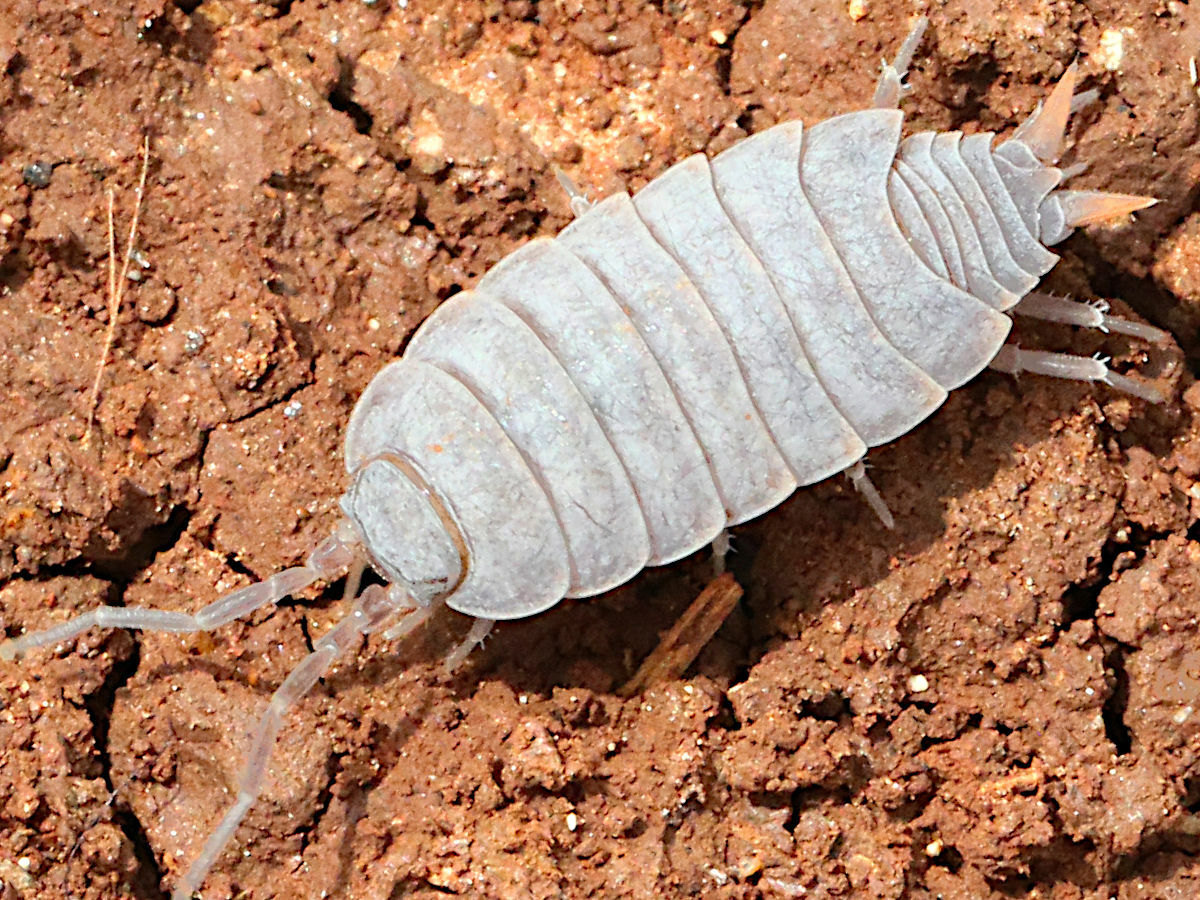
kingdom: Animalia
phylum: Arthropoda
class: Malacostraca
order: Isopoda
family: Porcellionidae
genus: Porcellionides
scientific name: Porcellionides pruinosus
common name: Plum woodlouse
